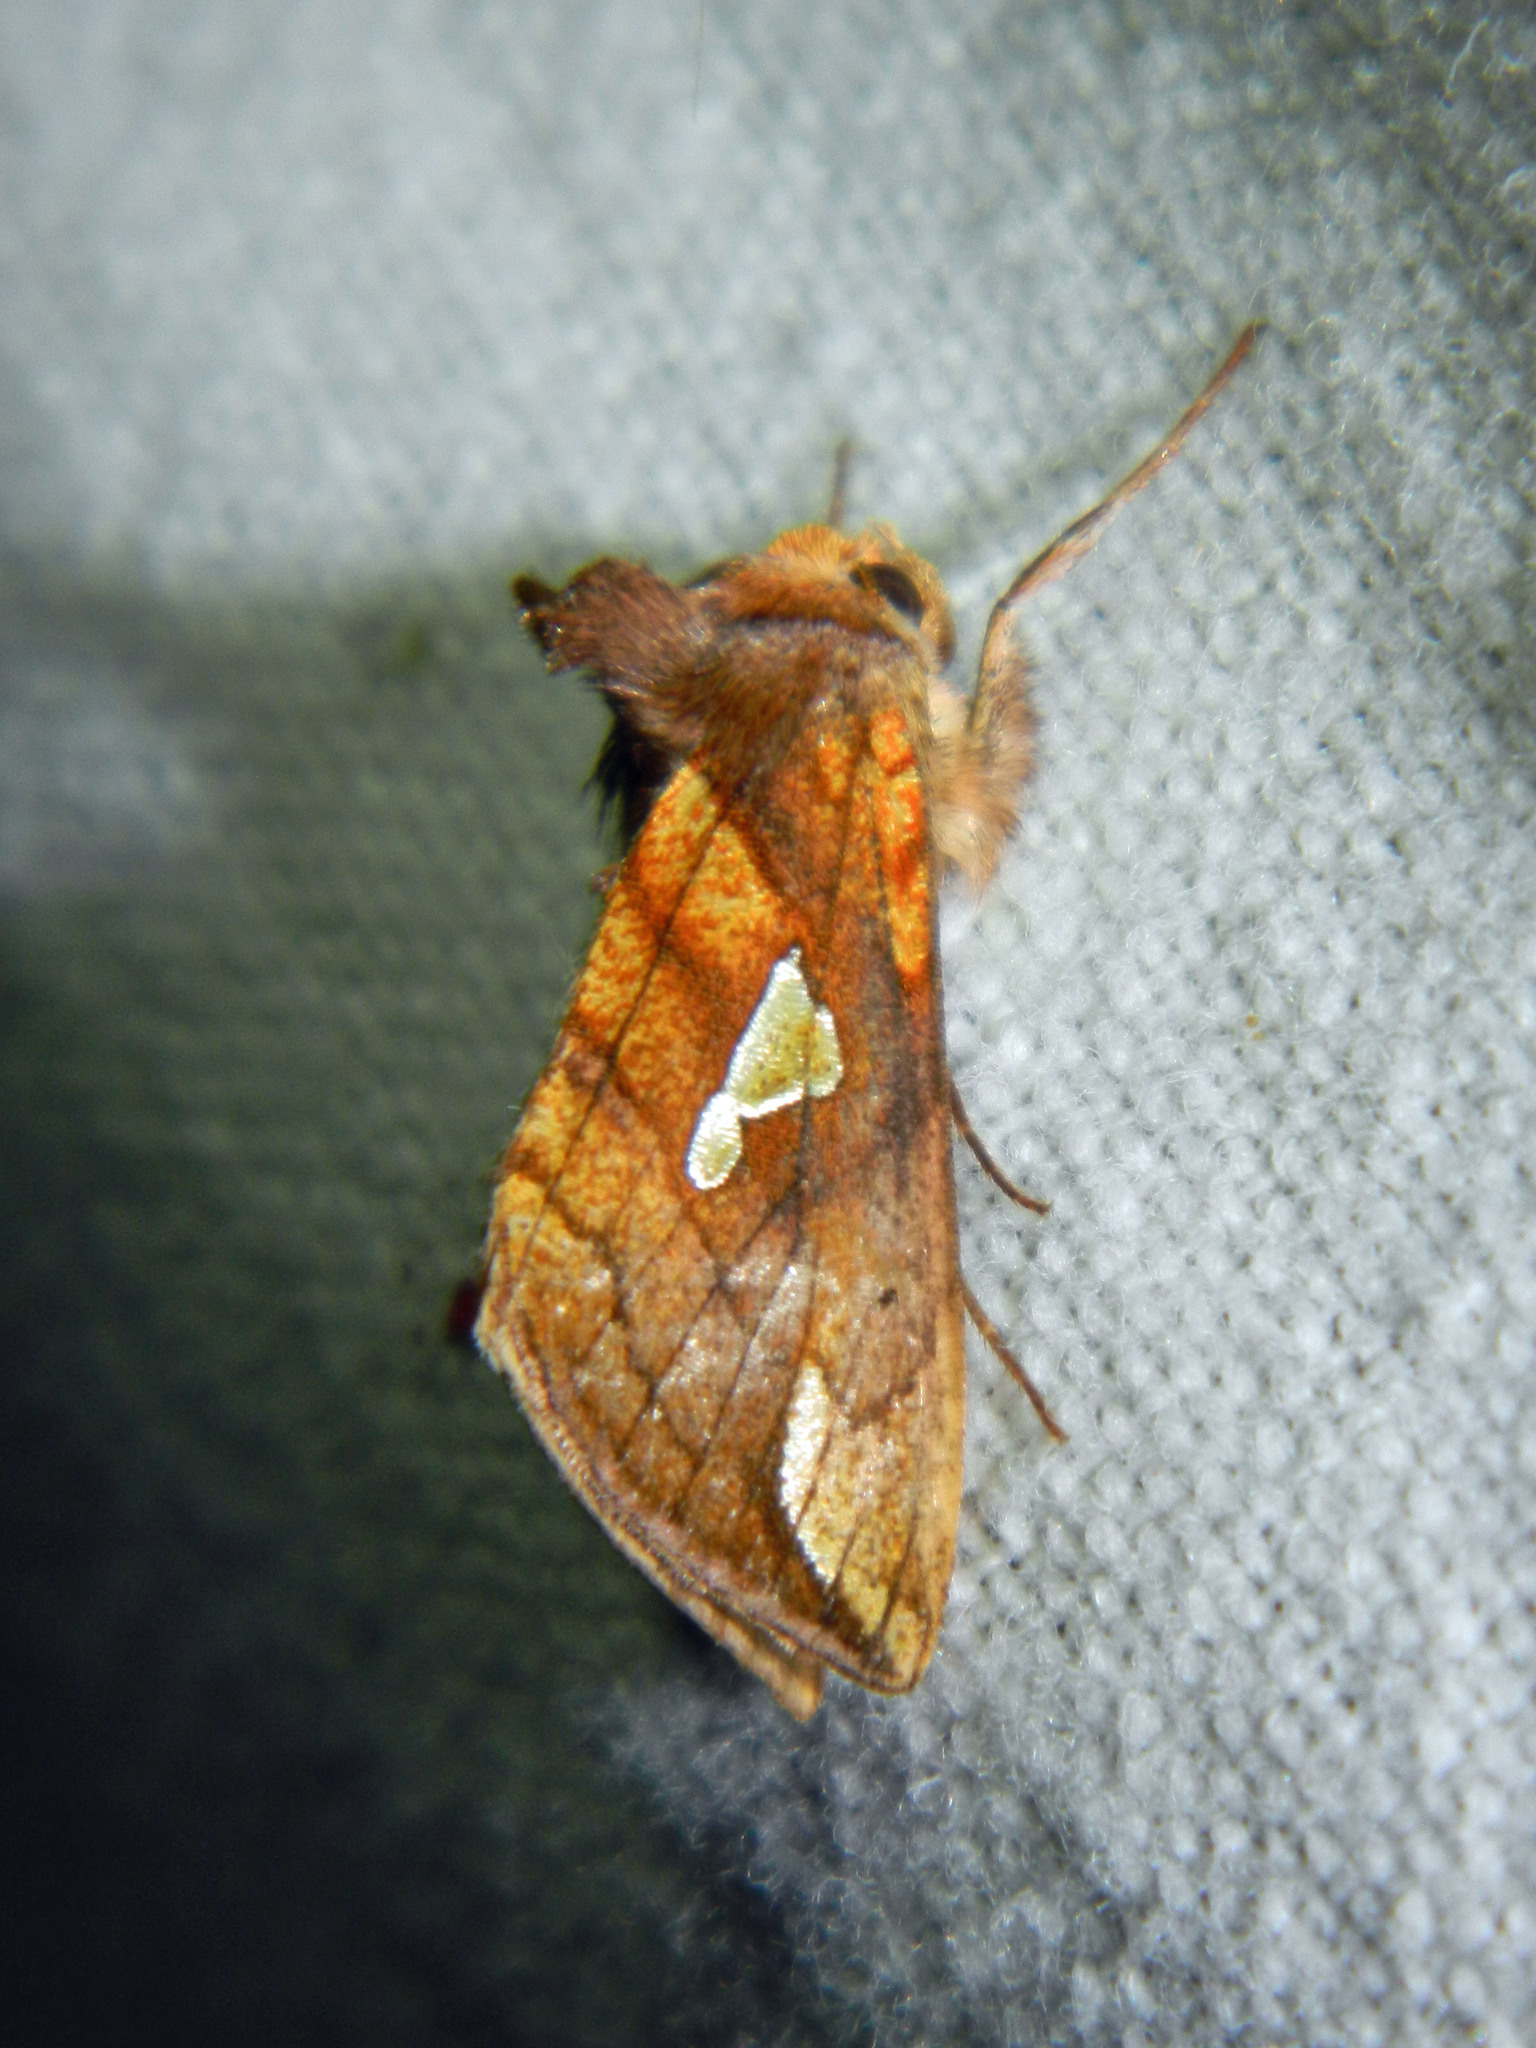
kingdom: Animalia
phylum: Arthropoda
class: Insecta
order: Lepidoptera
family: Noctuidae
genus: Plusia
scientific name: Plusia putnami
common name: Lempke's gold spot
